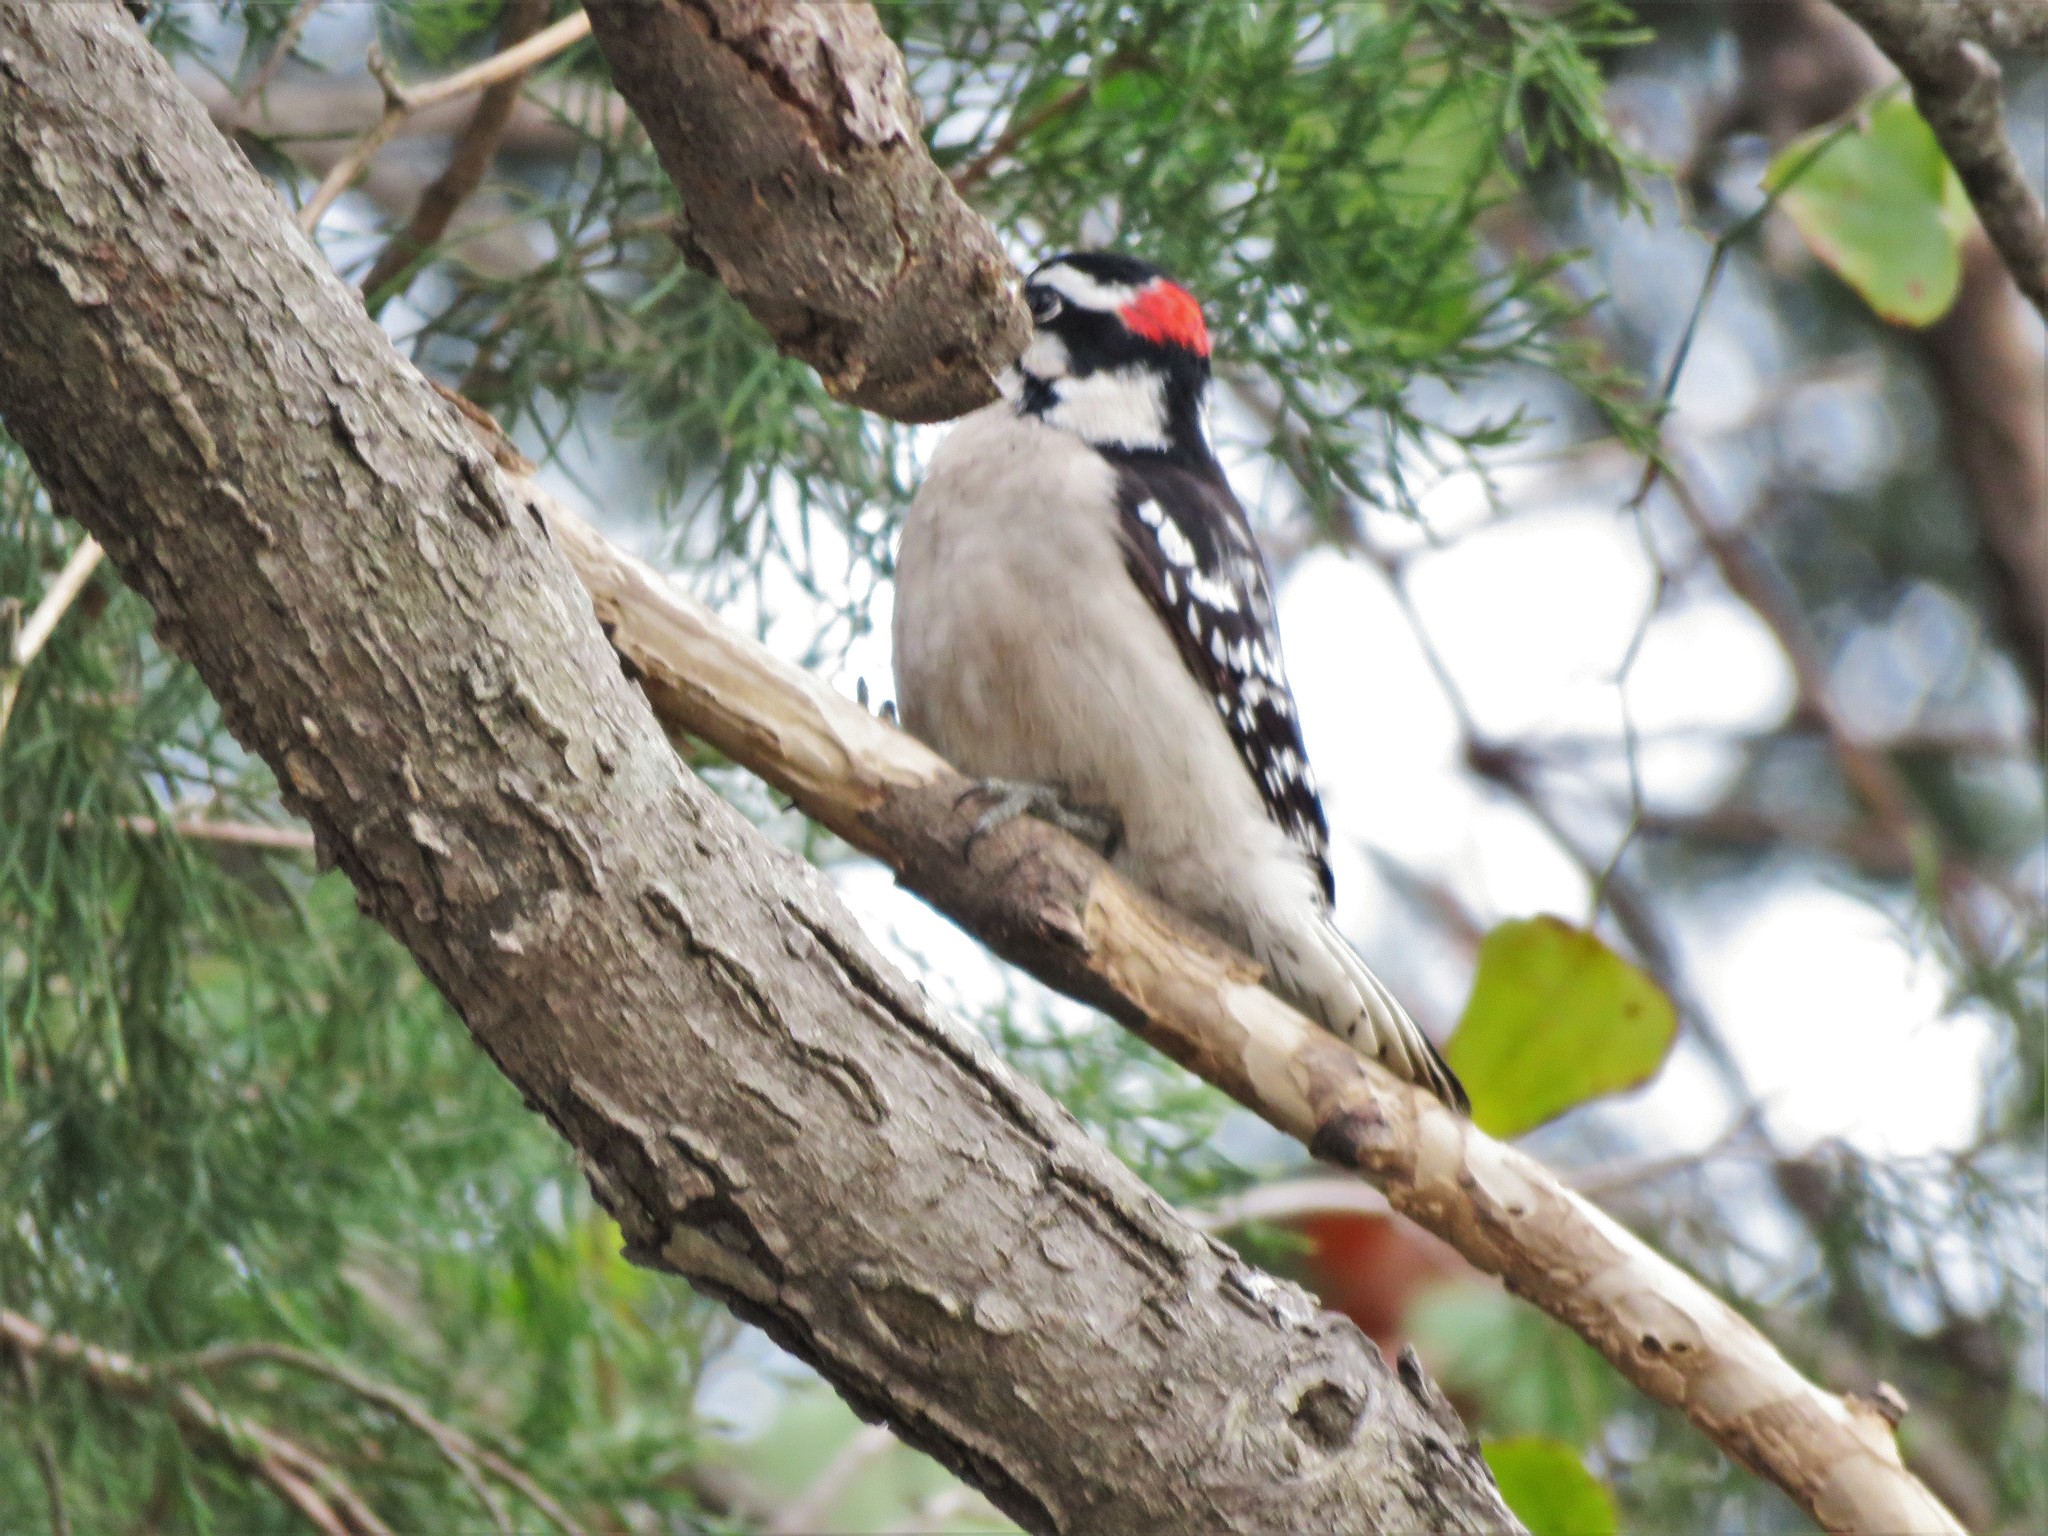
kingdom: Animalia
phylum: Chordata
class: Aves
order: Piciformes
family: Picidae
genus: Dryobates
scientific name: Dryobates pubescens
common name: Downy woodpecker
